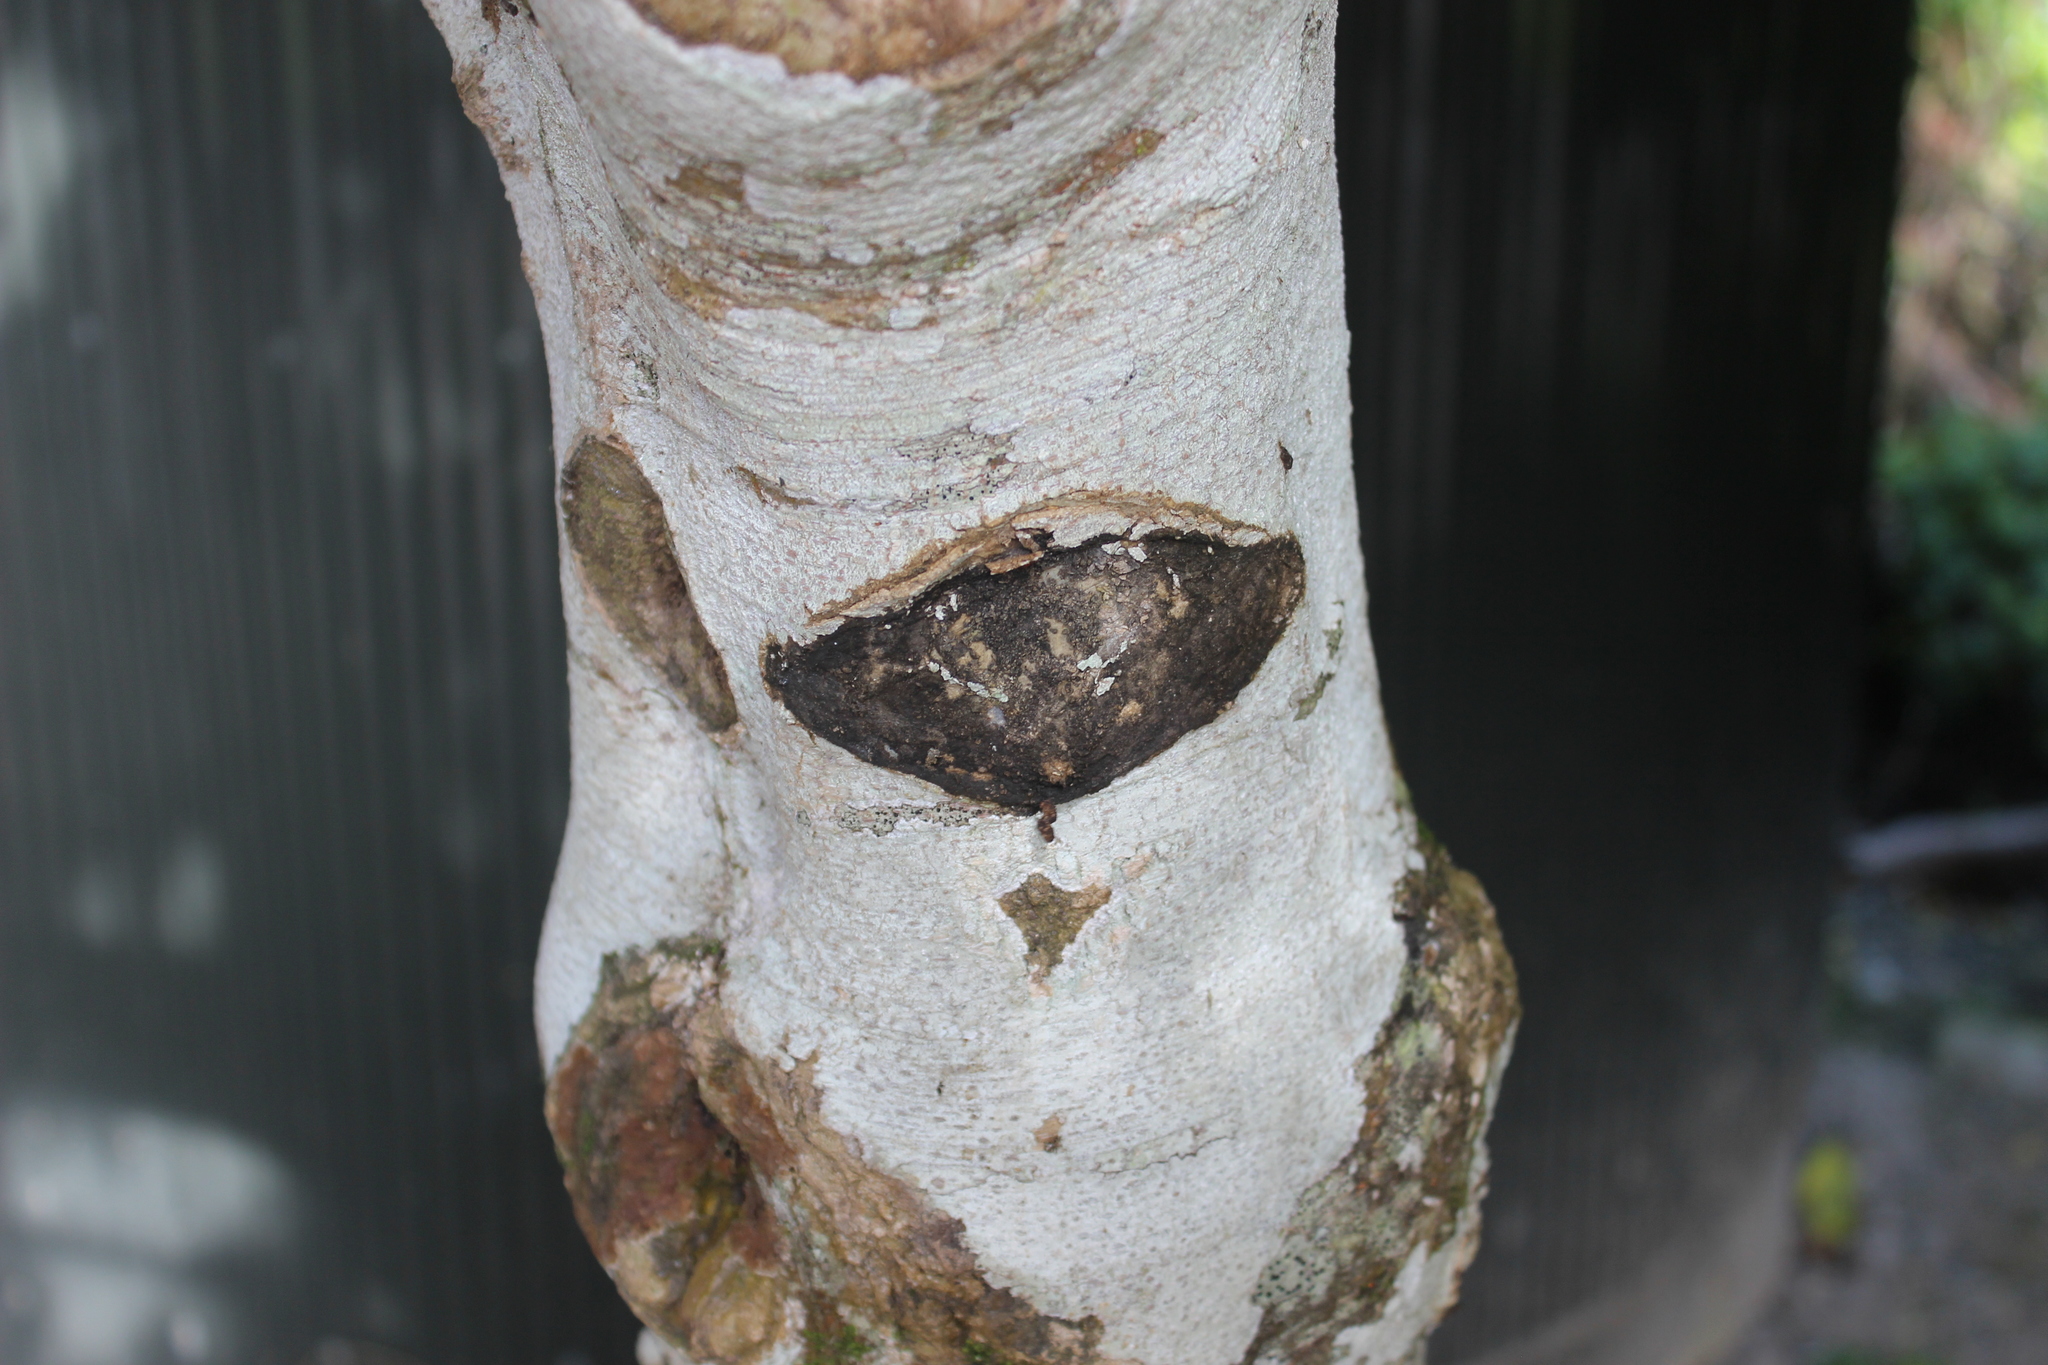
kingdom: Animalia
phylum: Arthropoda
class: Insecta
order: Lepidoptera
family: Hepialidae
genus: Aenetus
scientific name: Aenetus virescens
